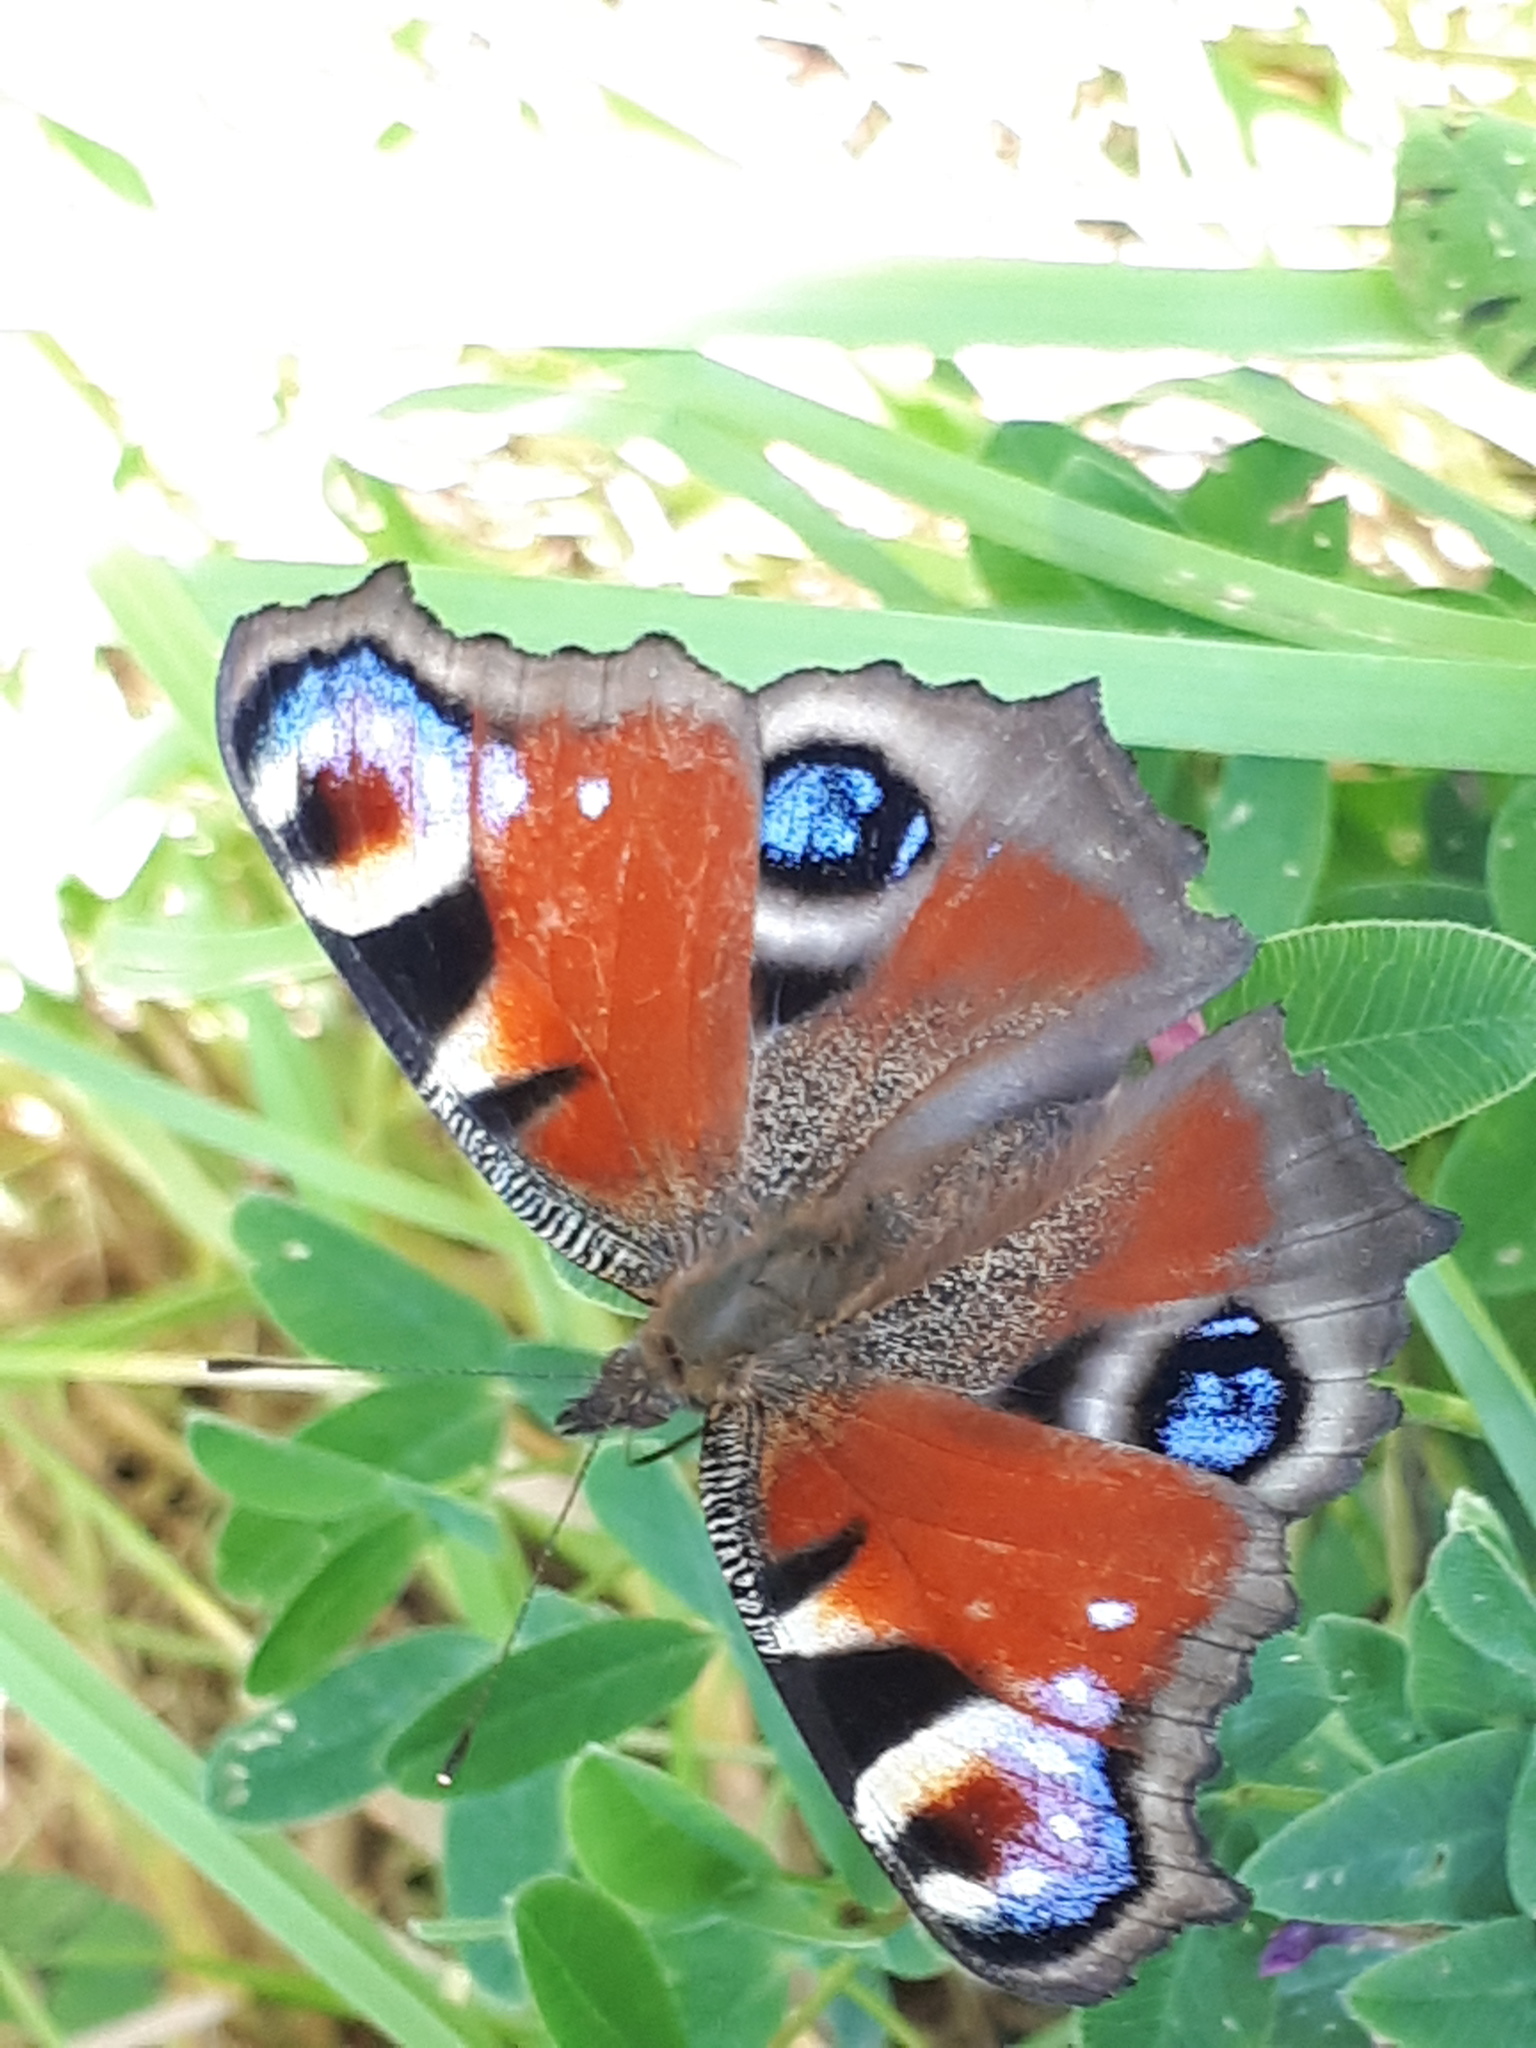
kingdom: Animalia
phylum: Arthropoda
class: Insecta
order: Lepidoptera
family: Nymphalidae
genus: Aglais
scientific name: Aglais io
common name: Peacock
